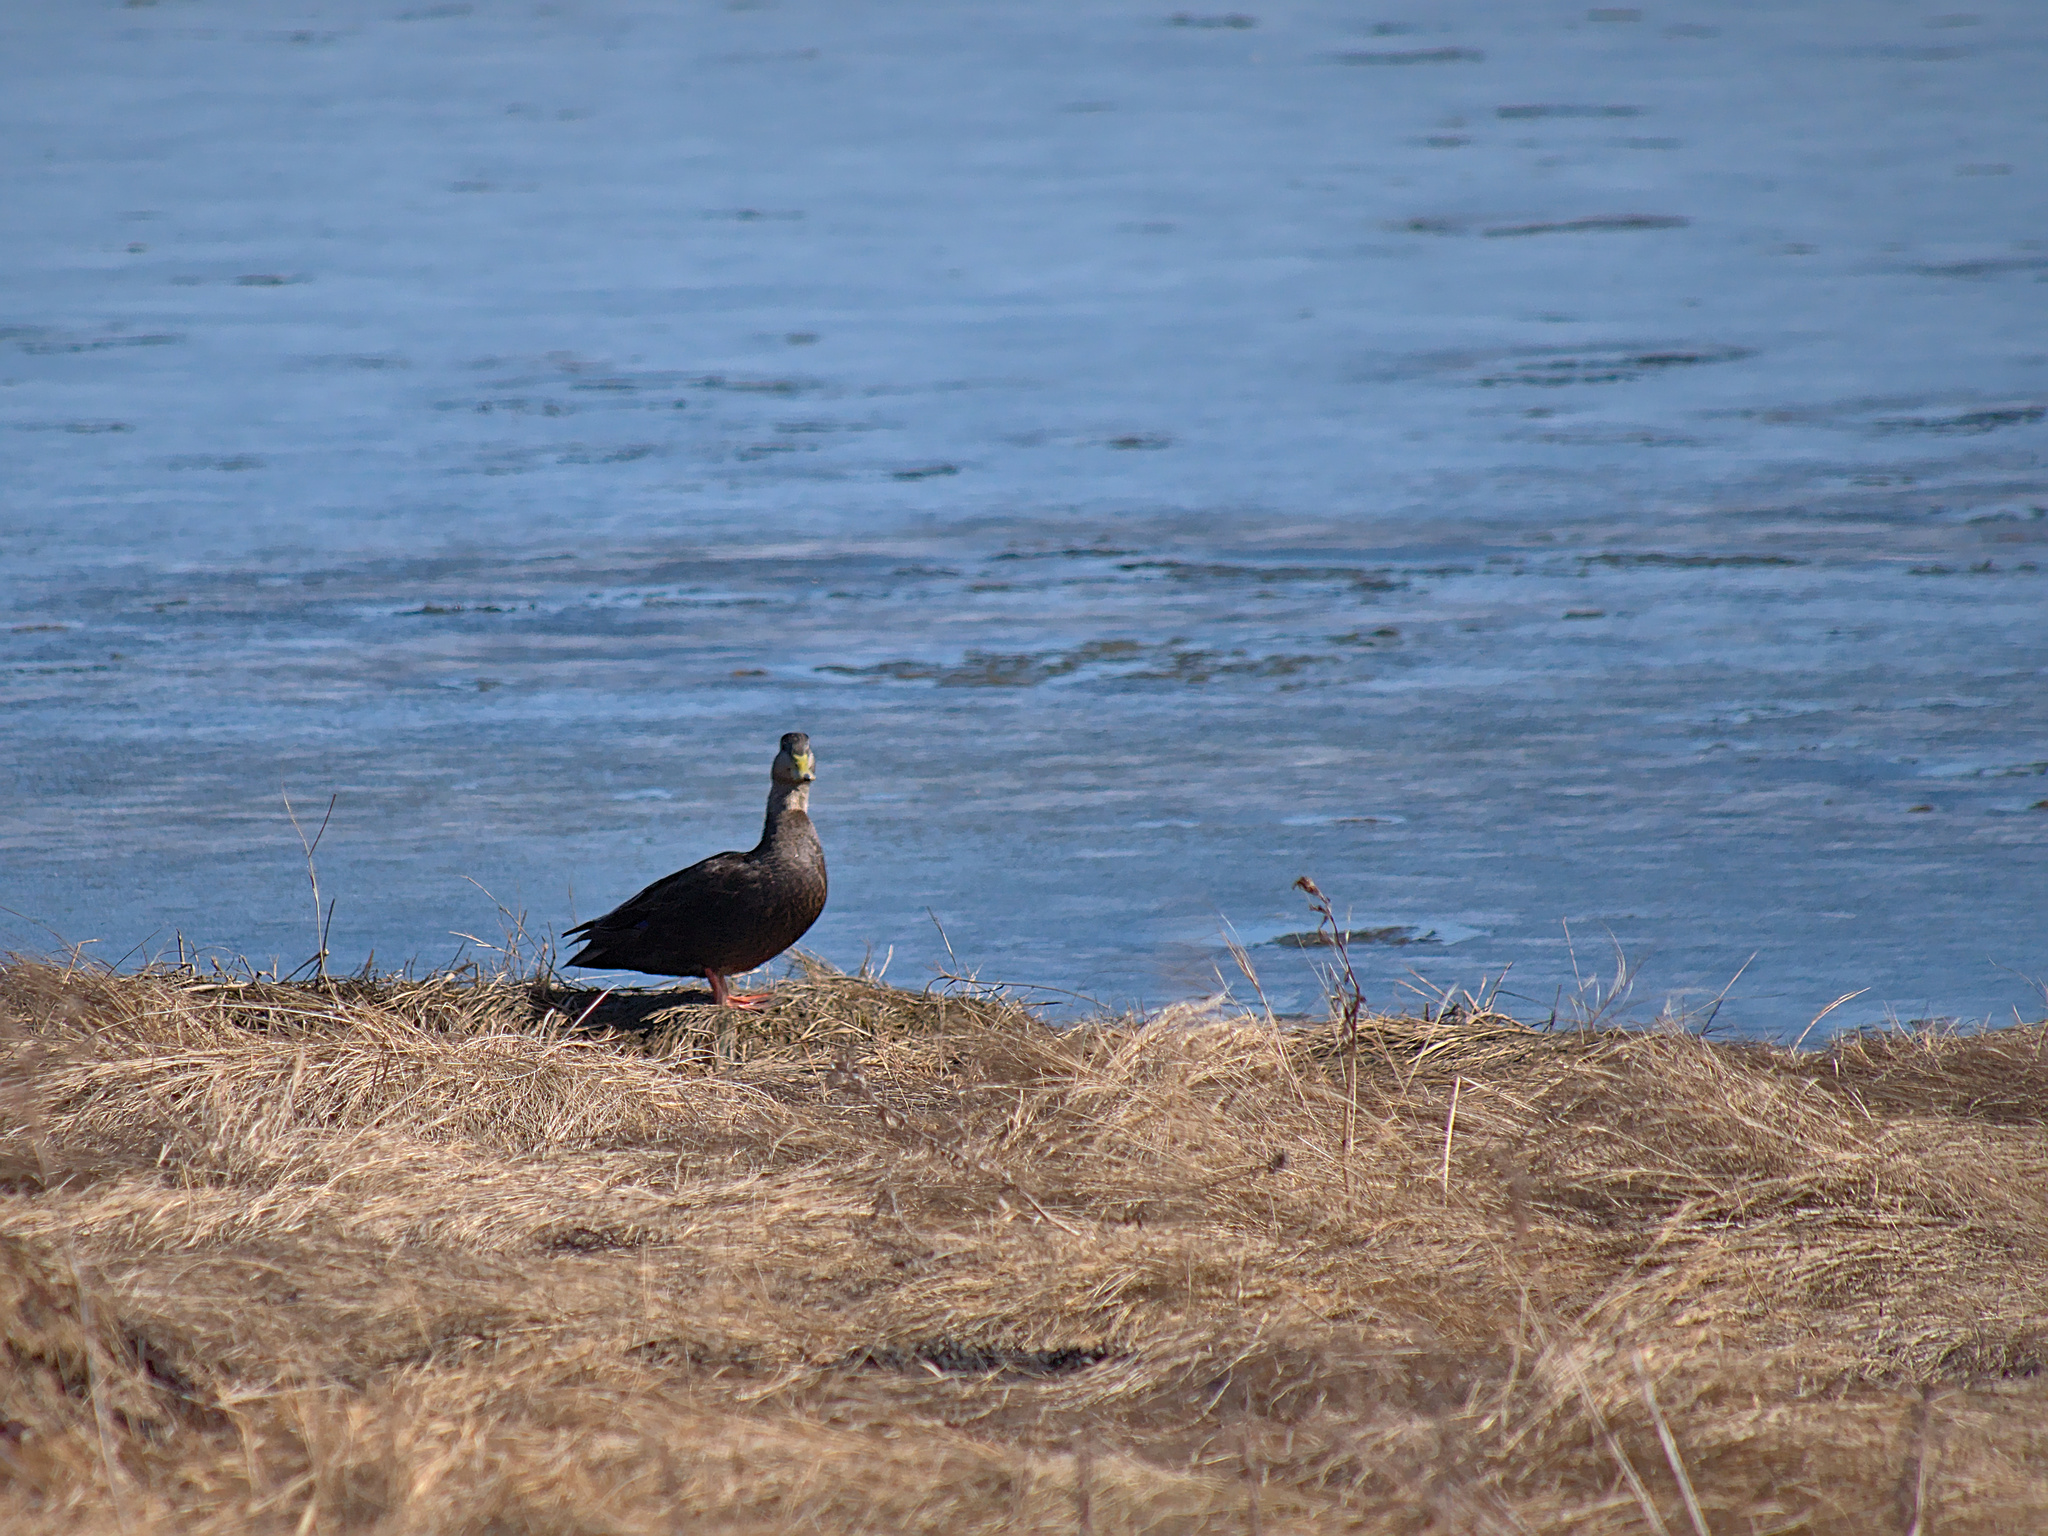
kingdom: Animalia
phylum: Chordata
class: Aves
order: Anseriformes
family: Anatidae
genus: Anas
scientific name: Anas rubripes
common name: American black duck
